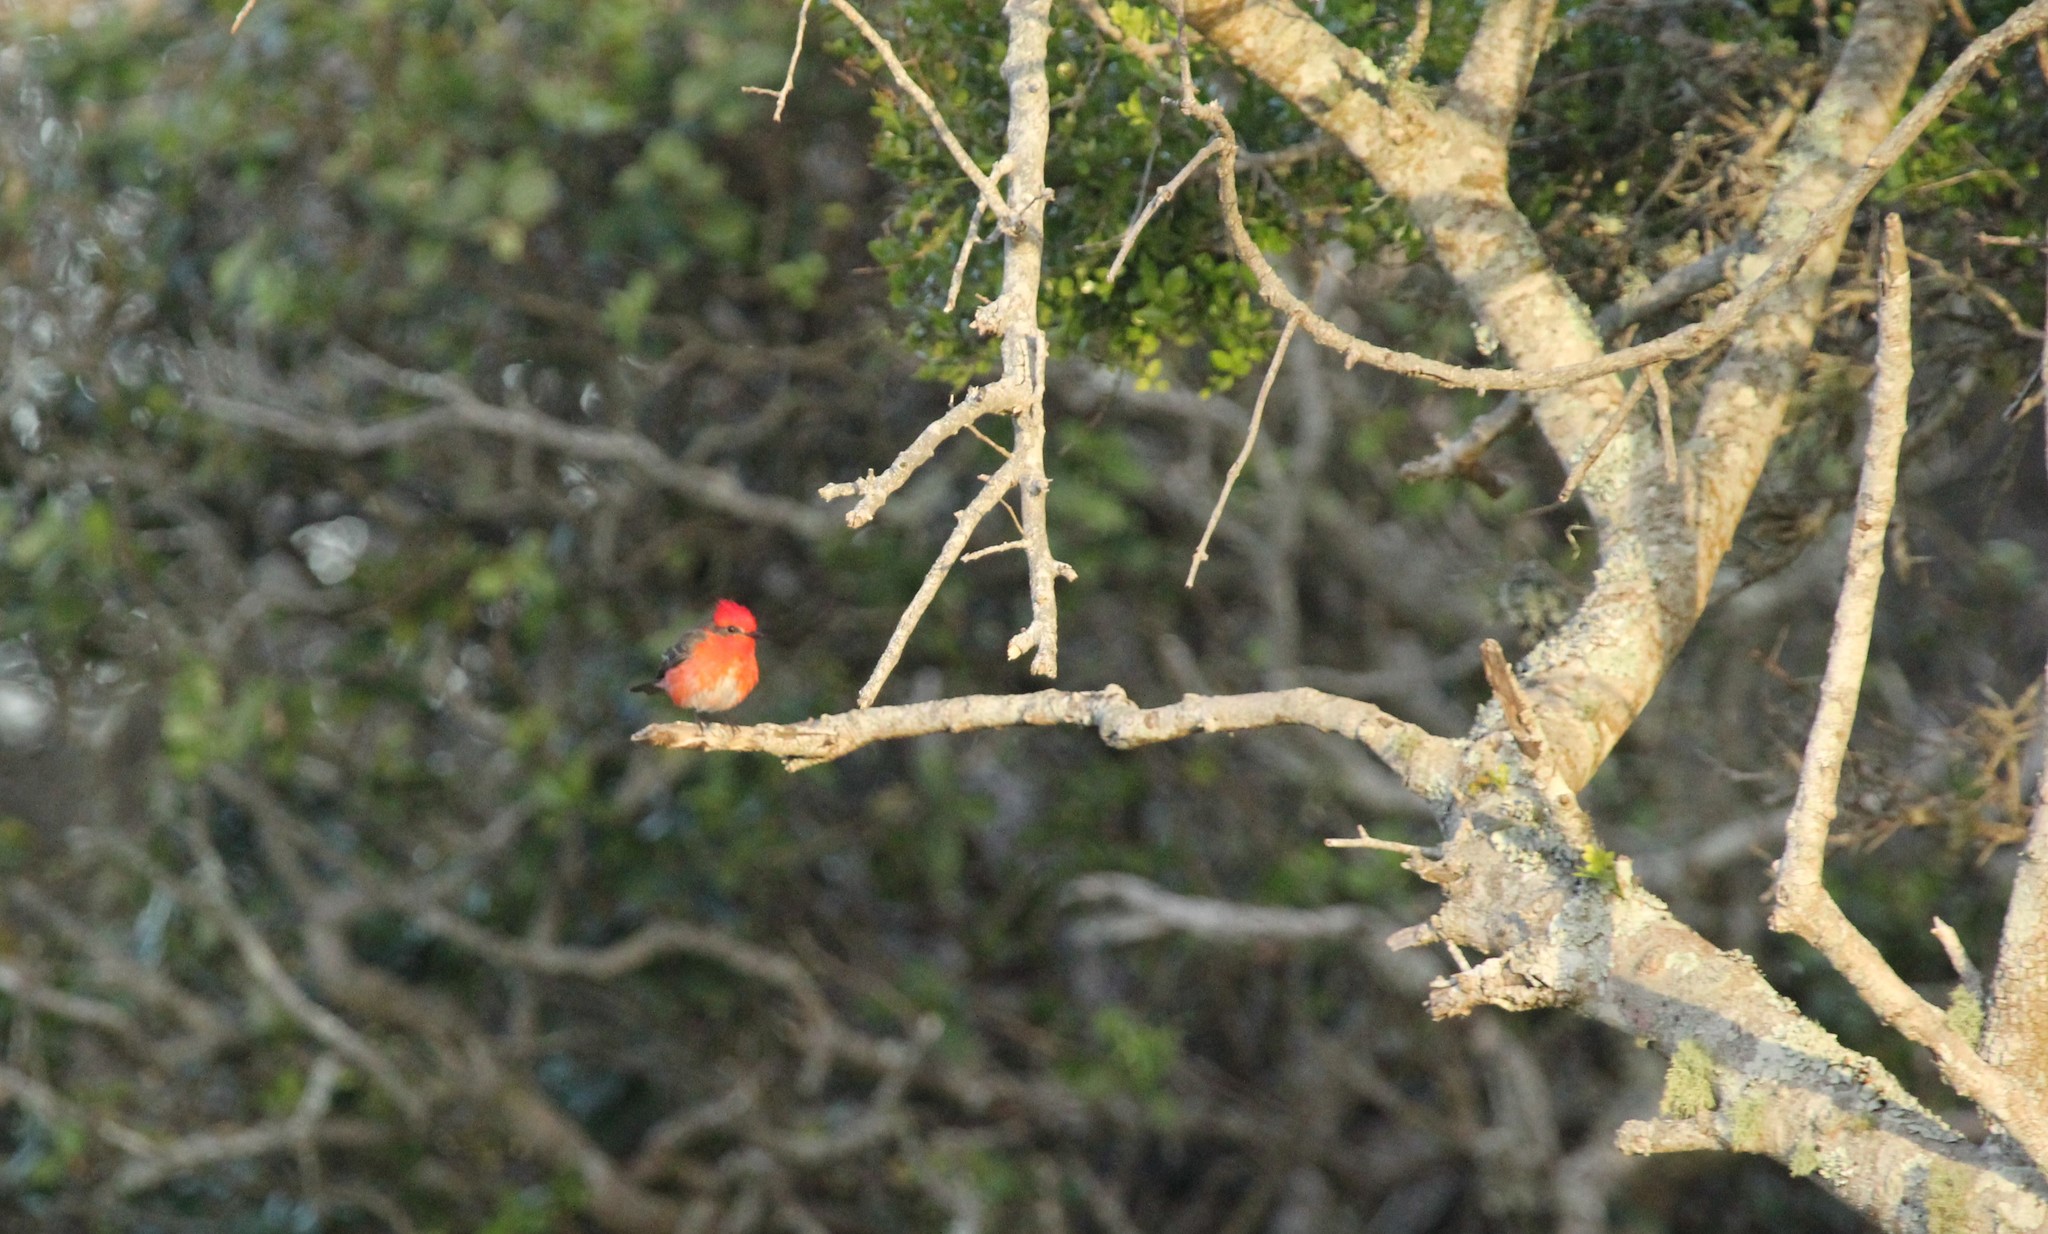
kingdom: Animalia
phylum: Chordata
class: Aves
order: Passeriformes
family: Tyrannidae
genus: Pyrocephalus
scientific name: Pyrocephalus rubinus
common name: Vermilion flycatcher
